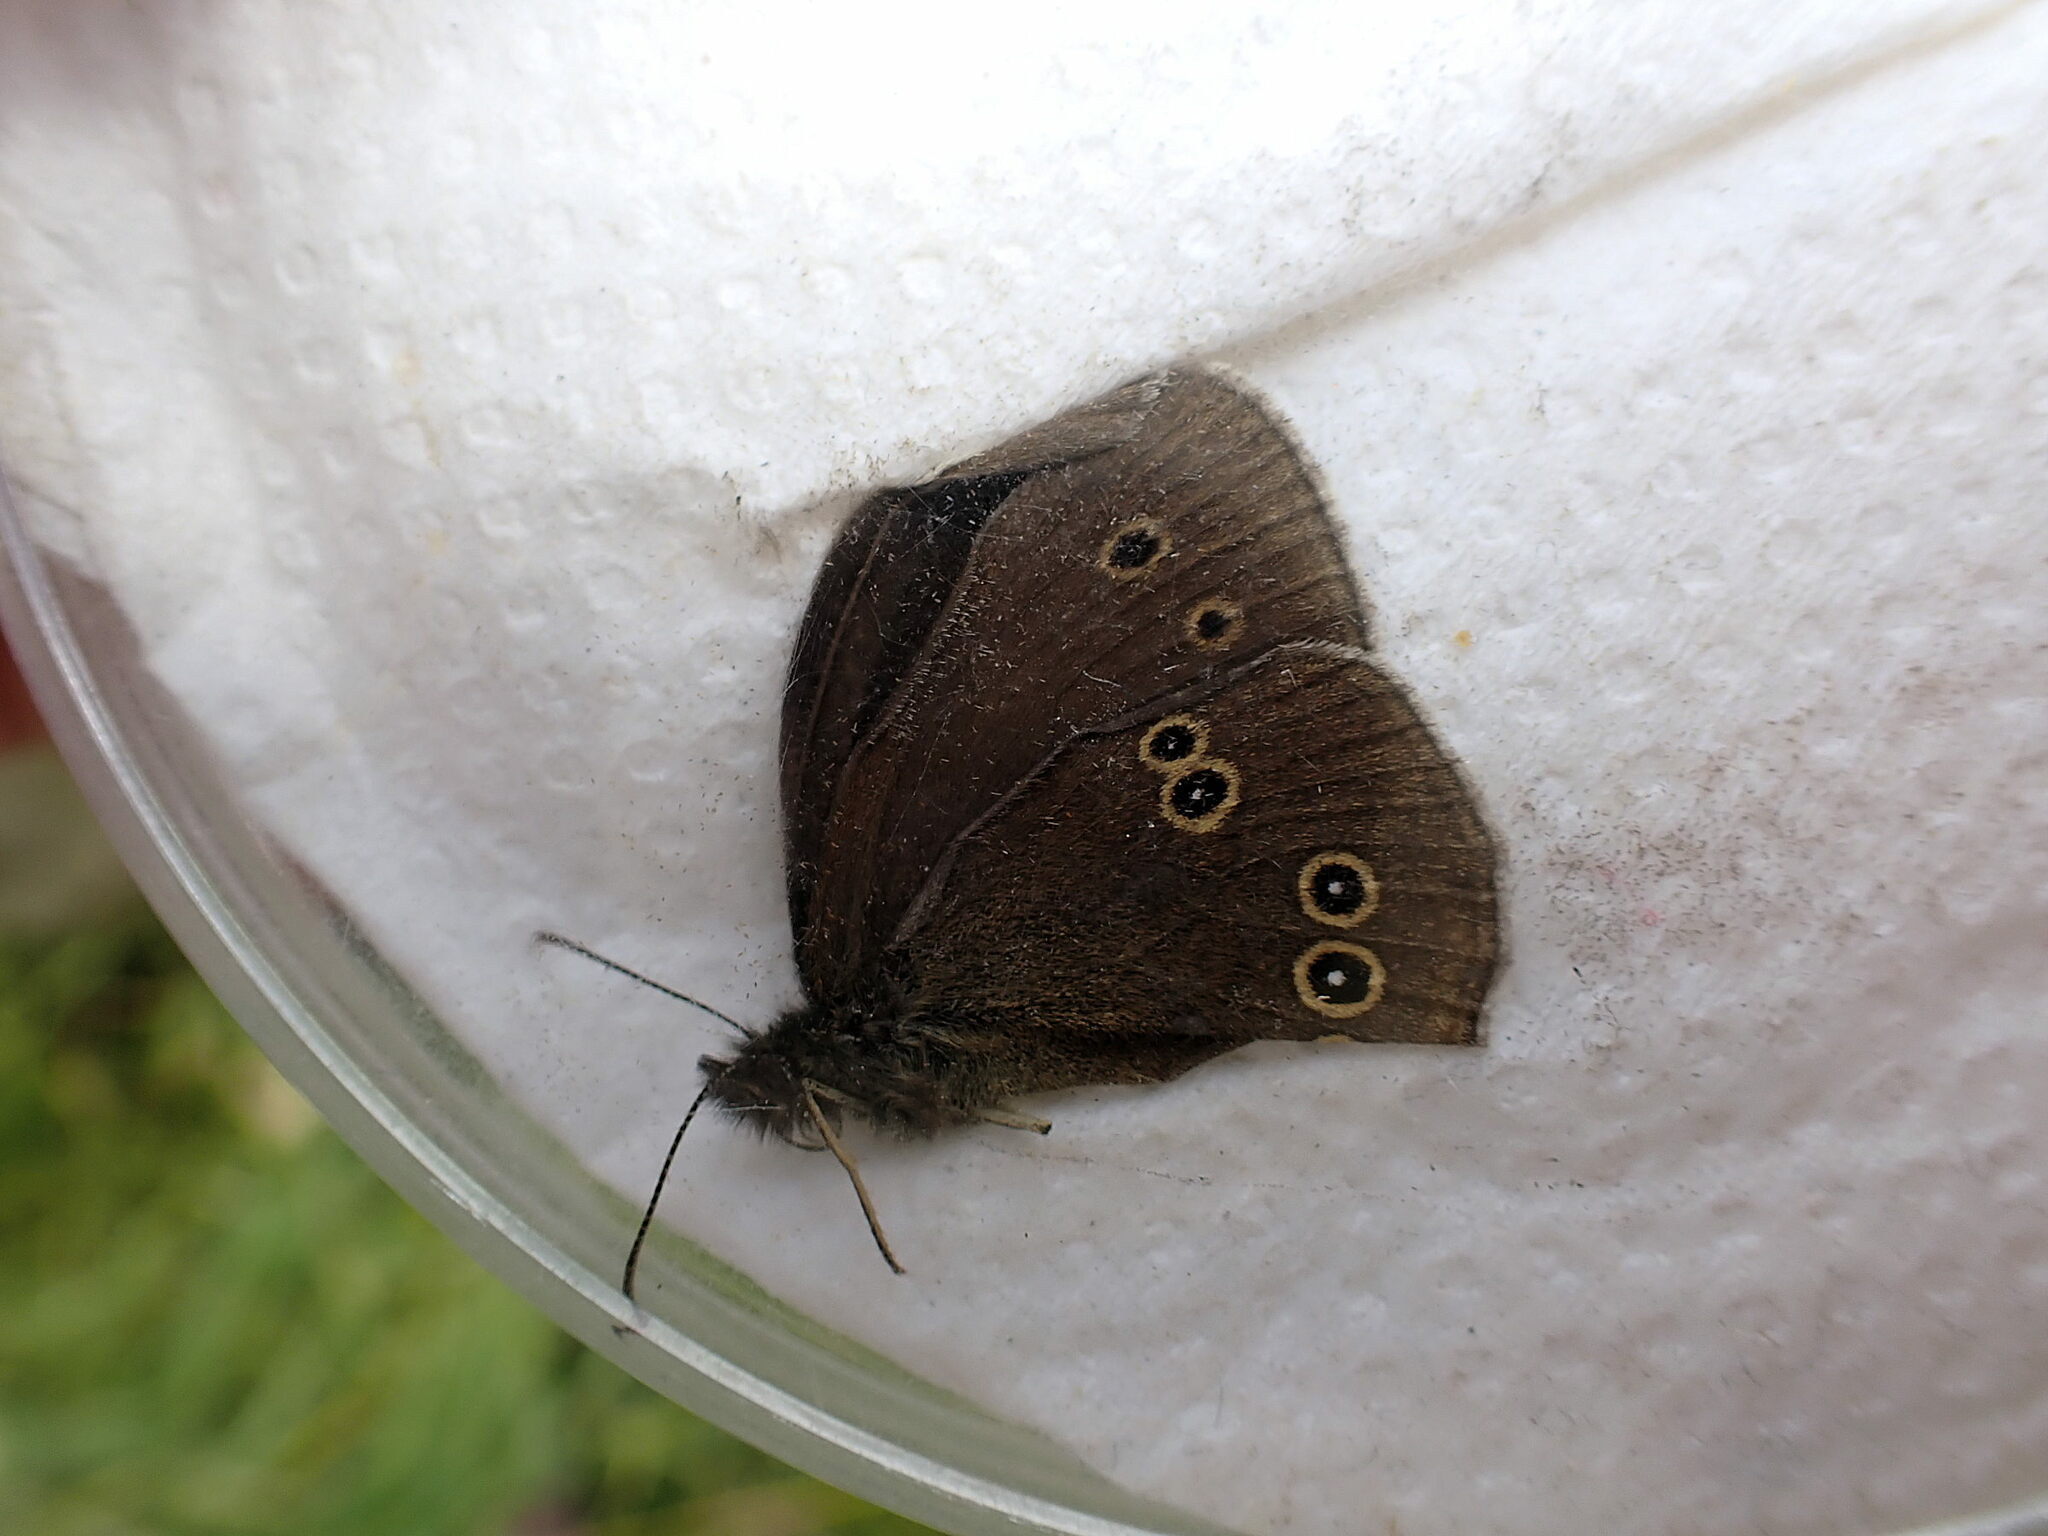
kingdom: Animalia
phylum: Arthropoda
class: Insecta
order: Lepidoptera
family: Nymphalidae
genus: Aphantopus
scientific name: Aphantopus hyperantus
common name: Ringlet
